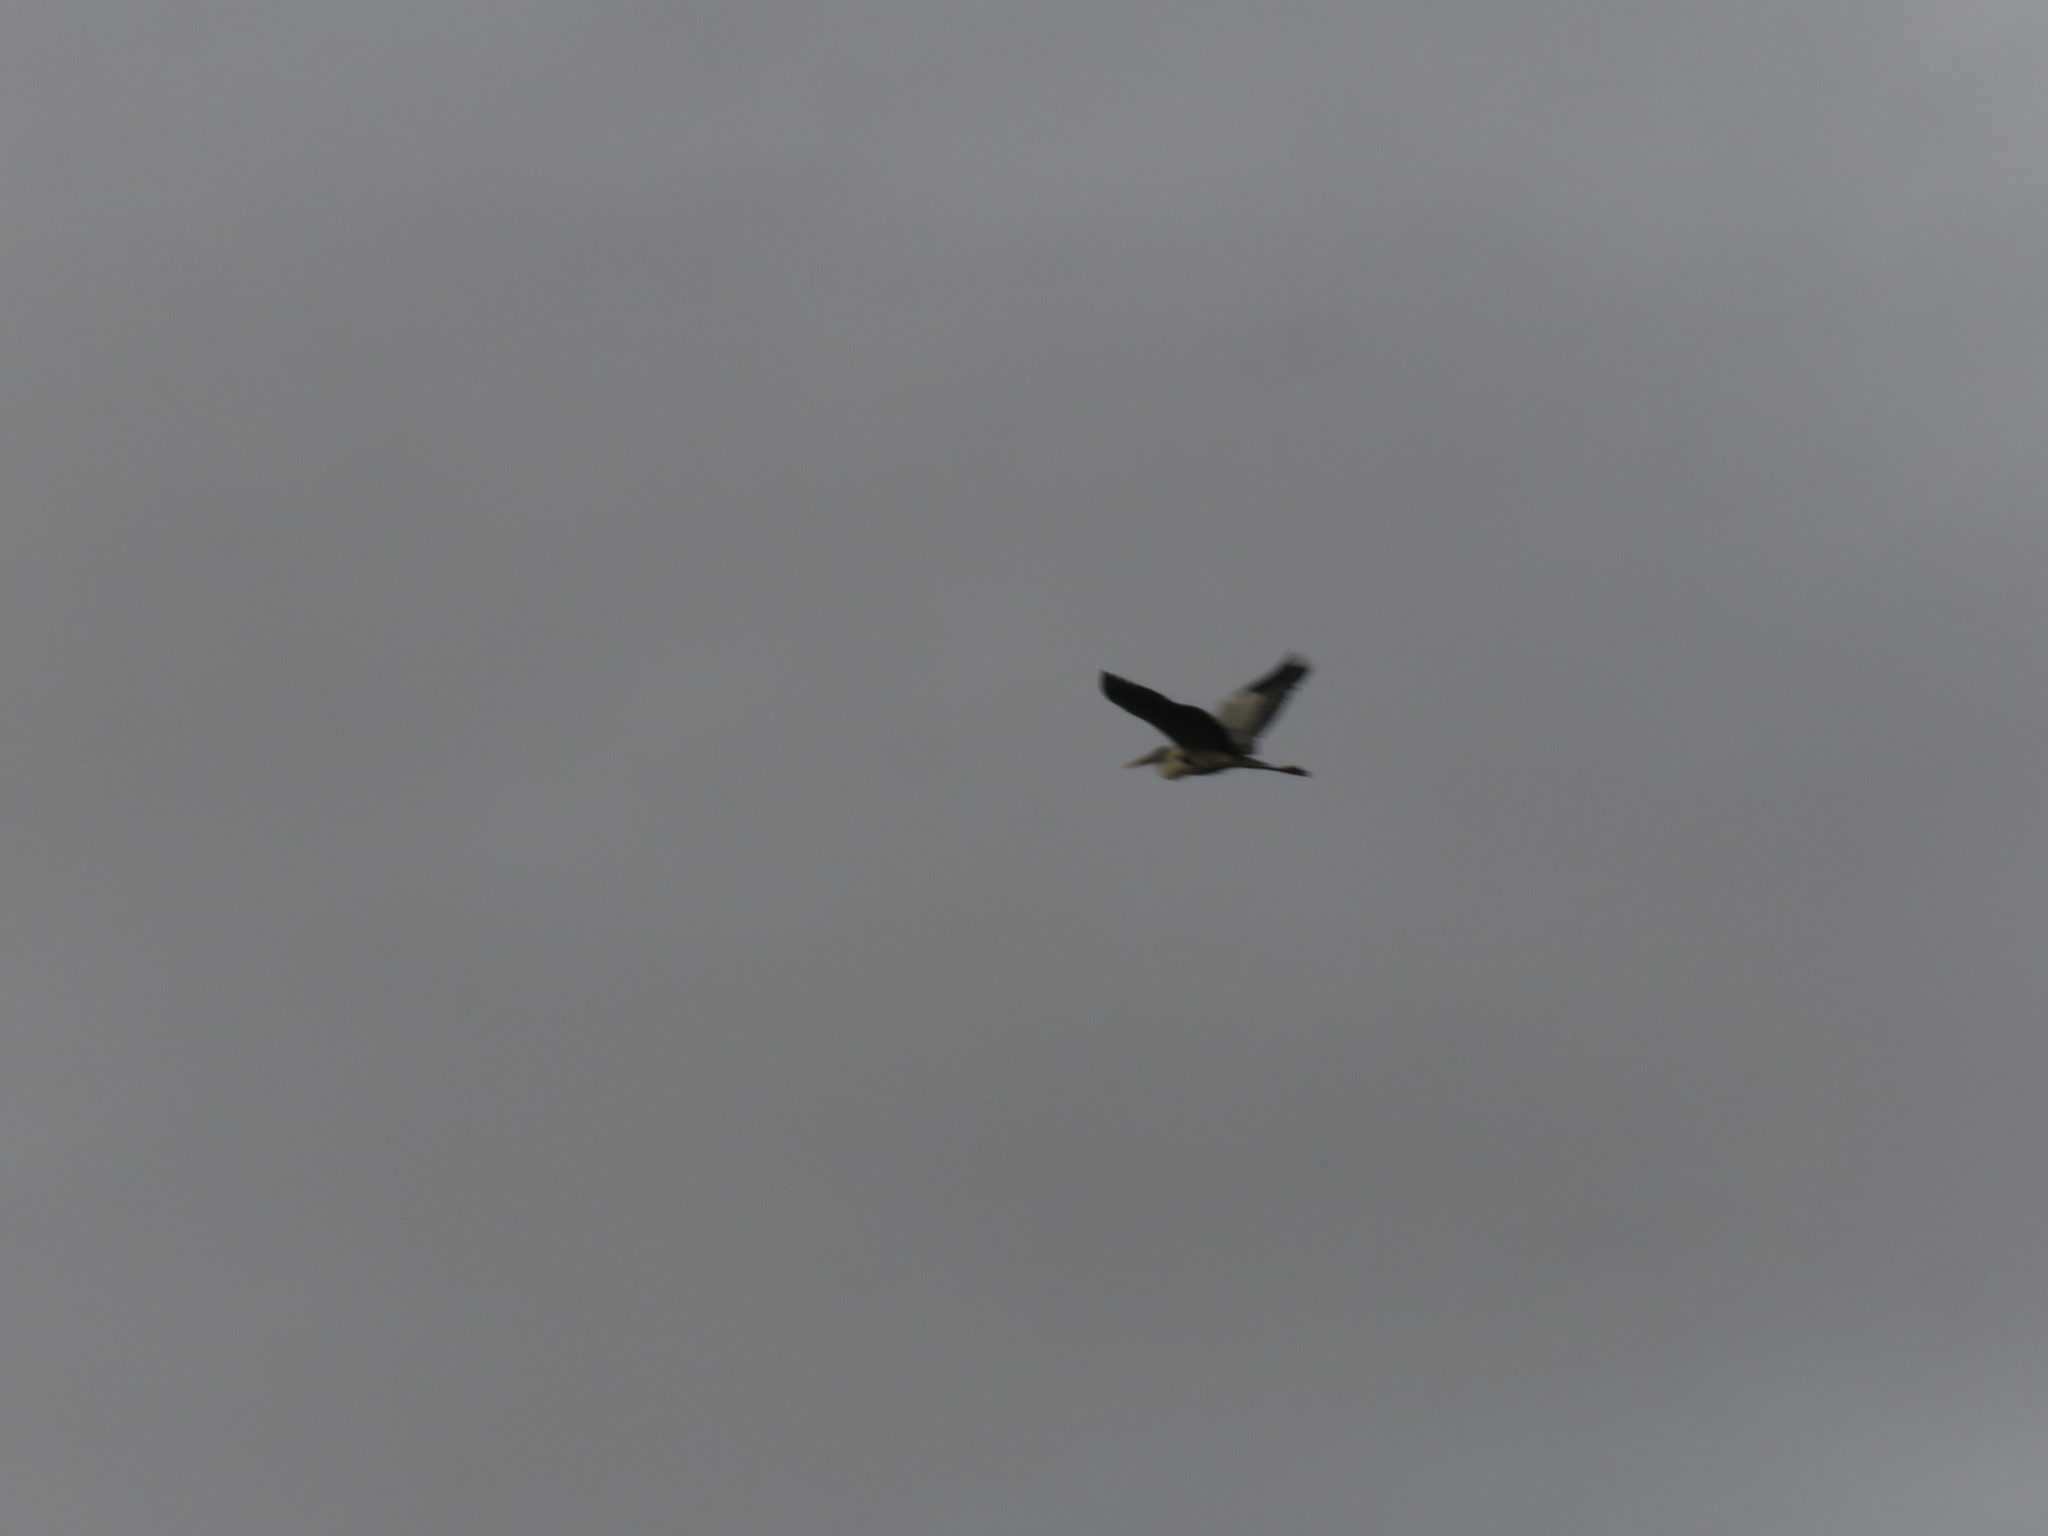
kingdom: Animalia
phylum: Chordata
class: Aves
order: Pelecaniformes
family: Ardeidae
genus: Ardea
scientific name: Ardea cocoi
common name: Cocoi heron
